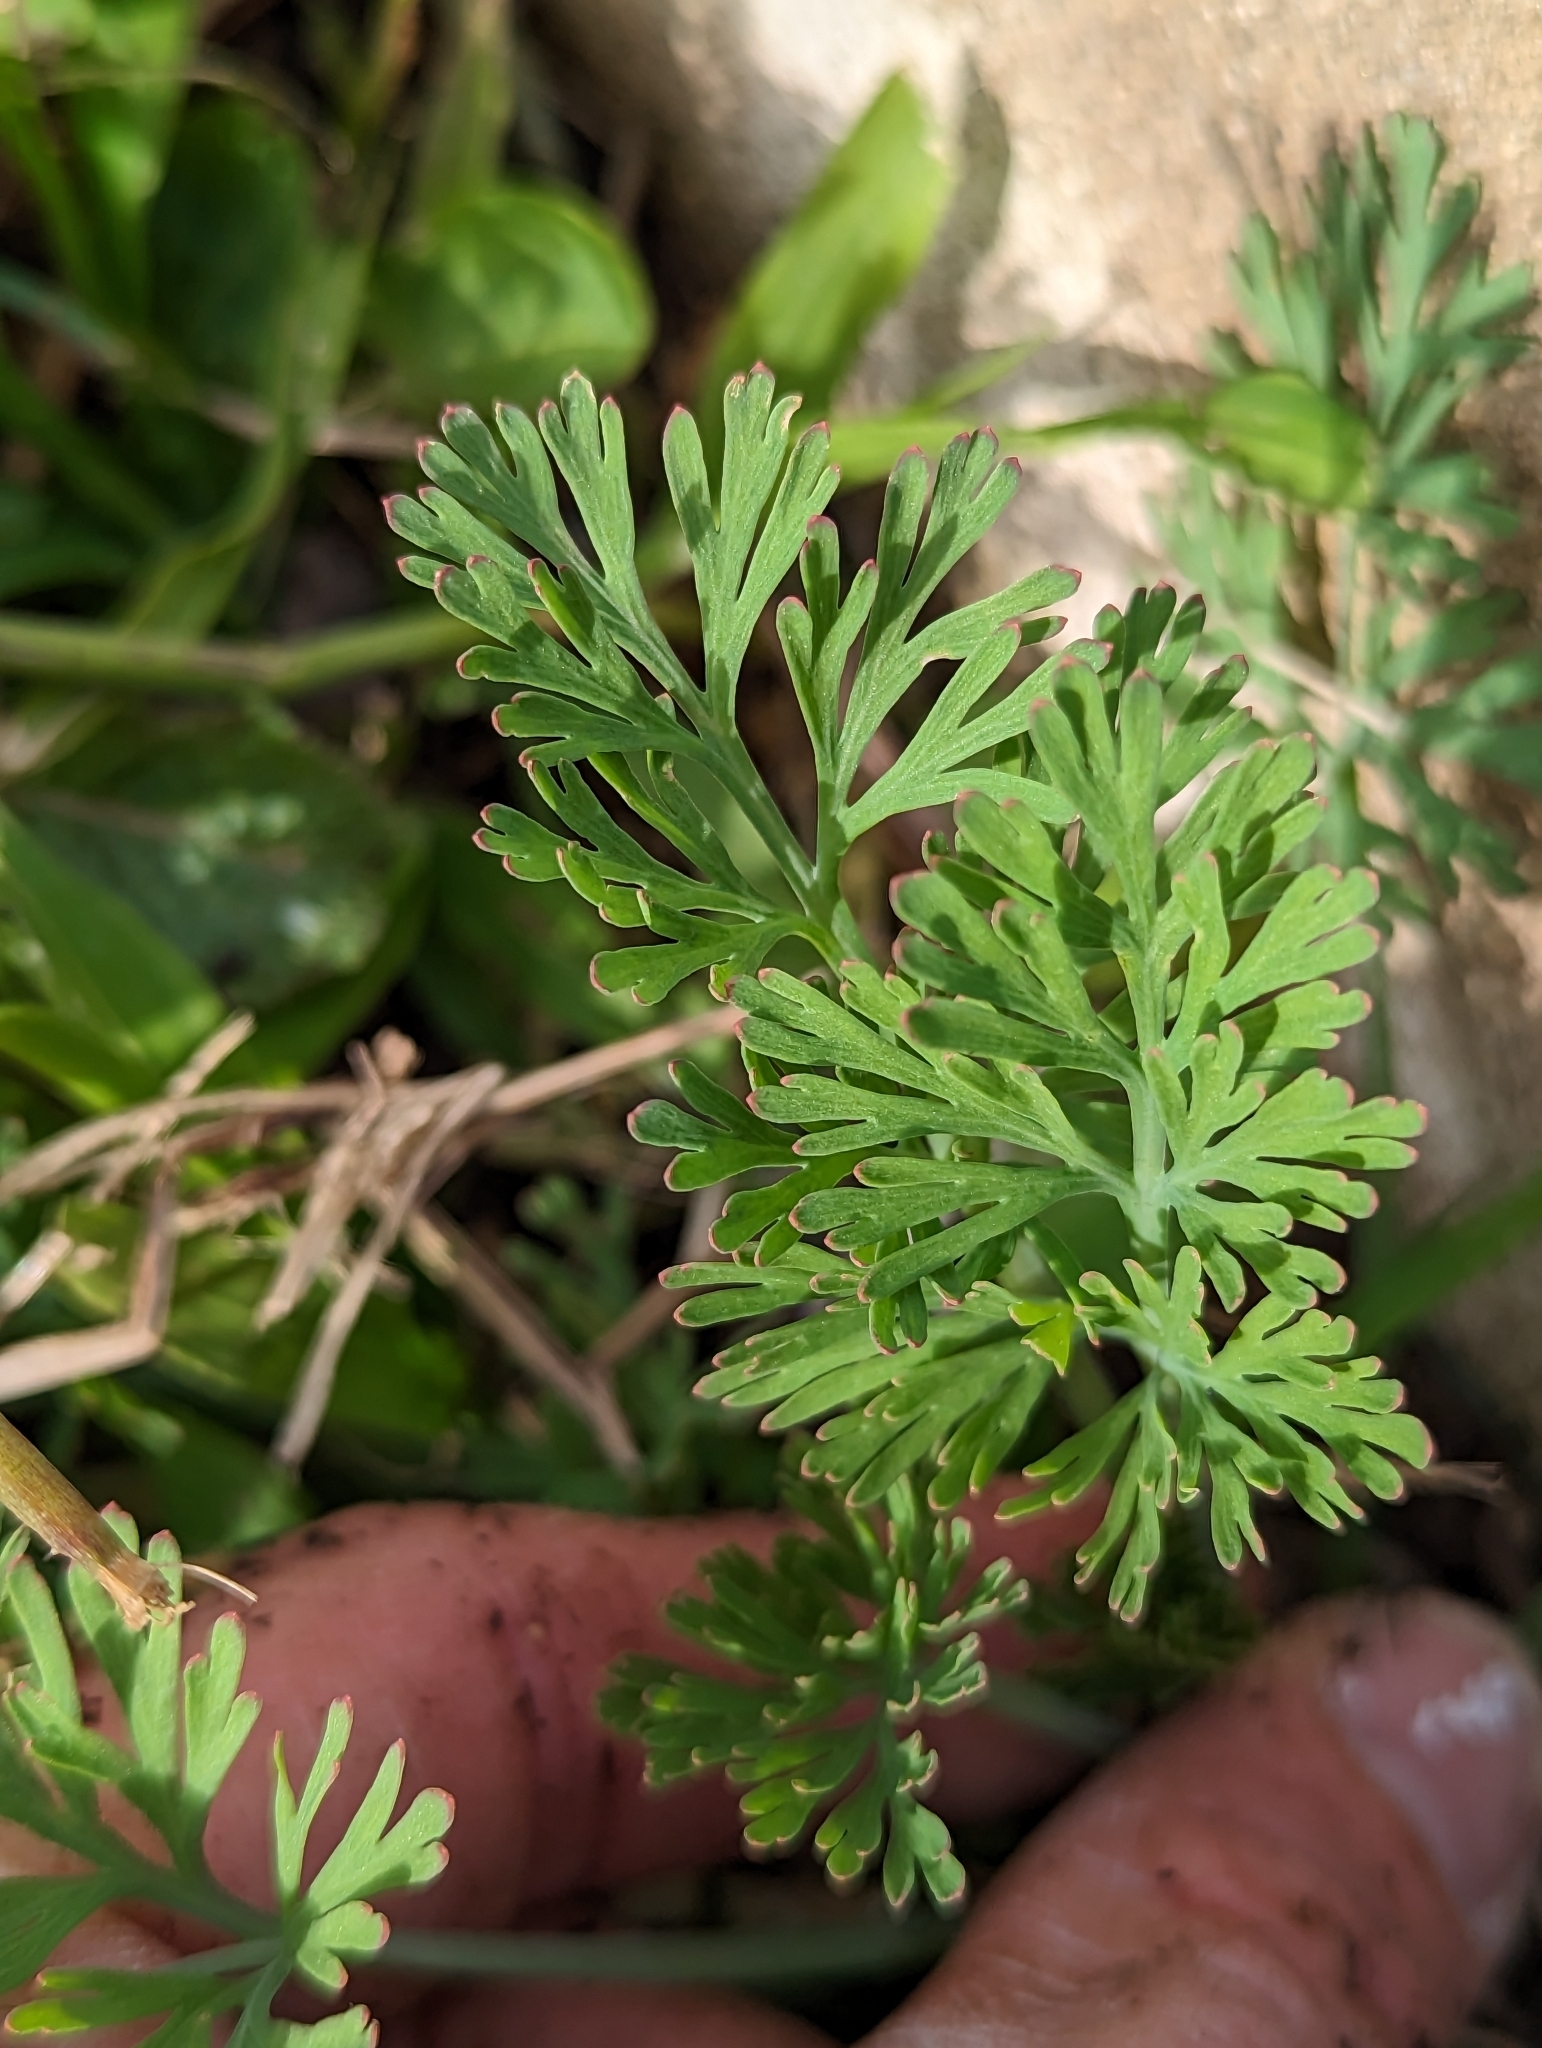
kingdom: Plantae
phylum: Tracheophyta
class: Magnoliopsida
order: Ranunculales
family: Papaveraceae
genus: Eschscholzia
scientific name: Eschscholzia californica
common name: California poppy
